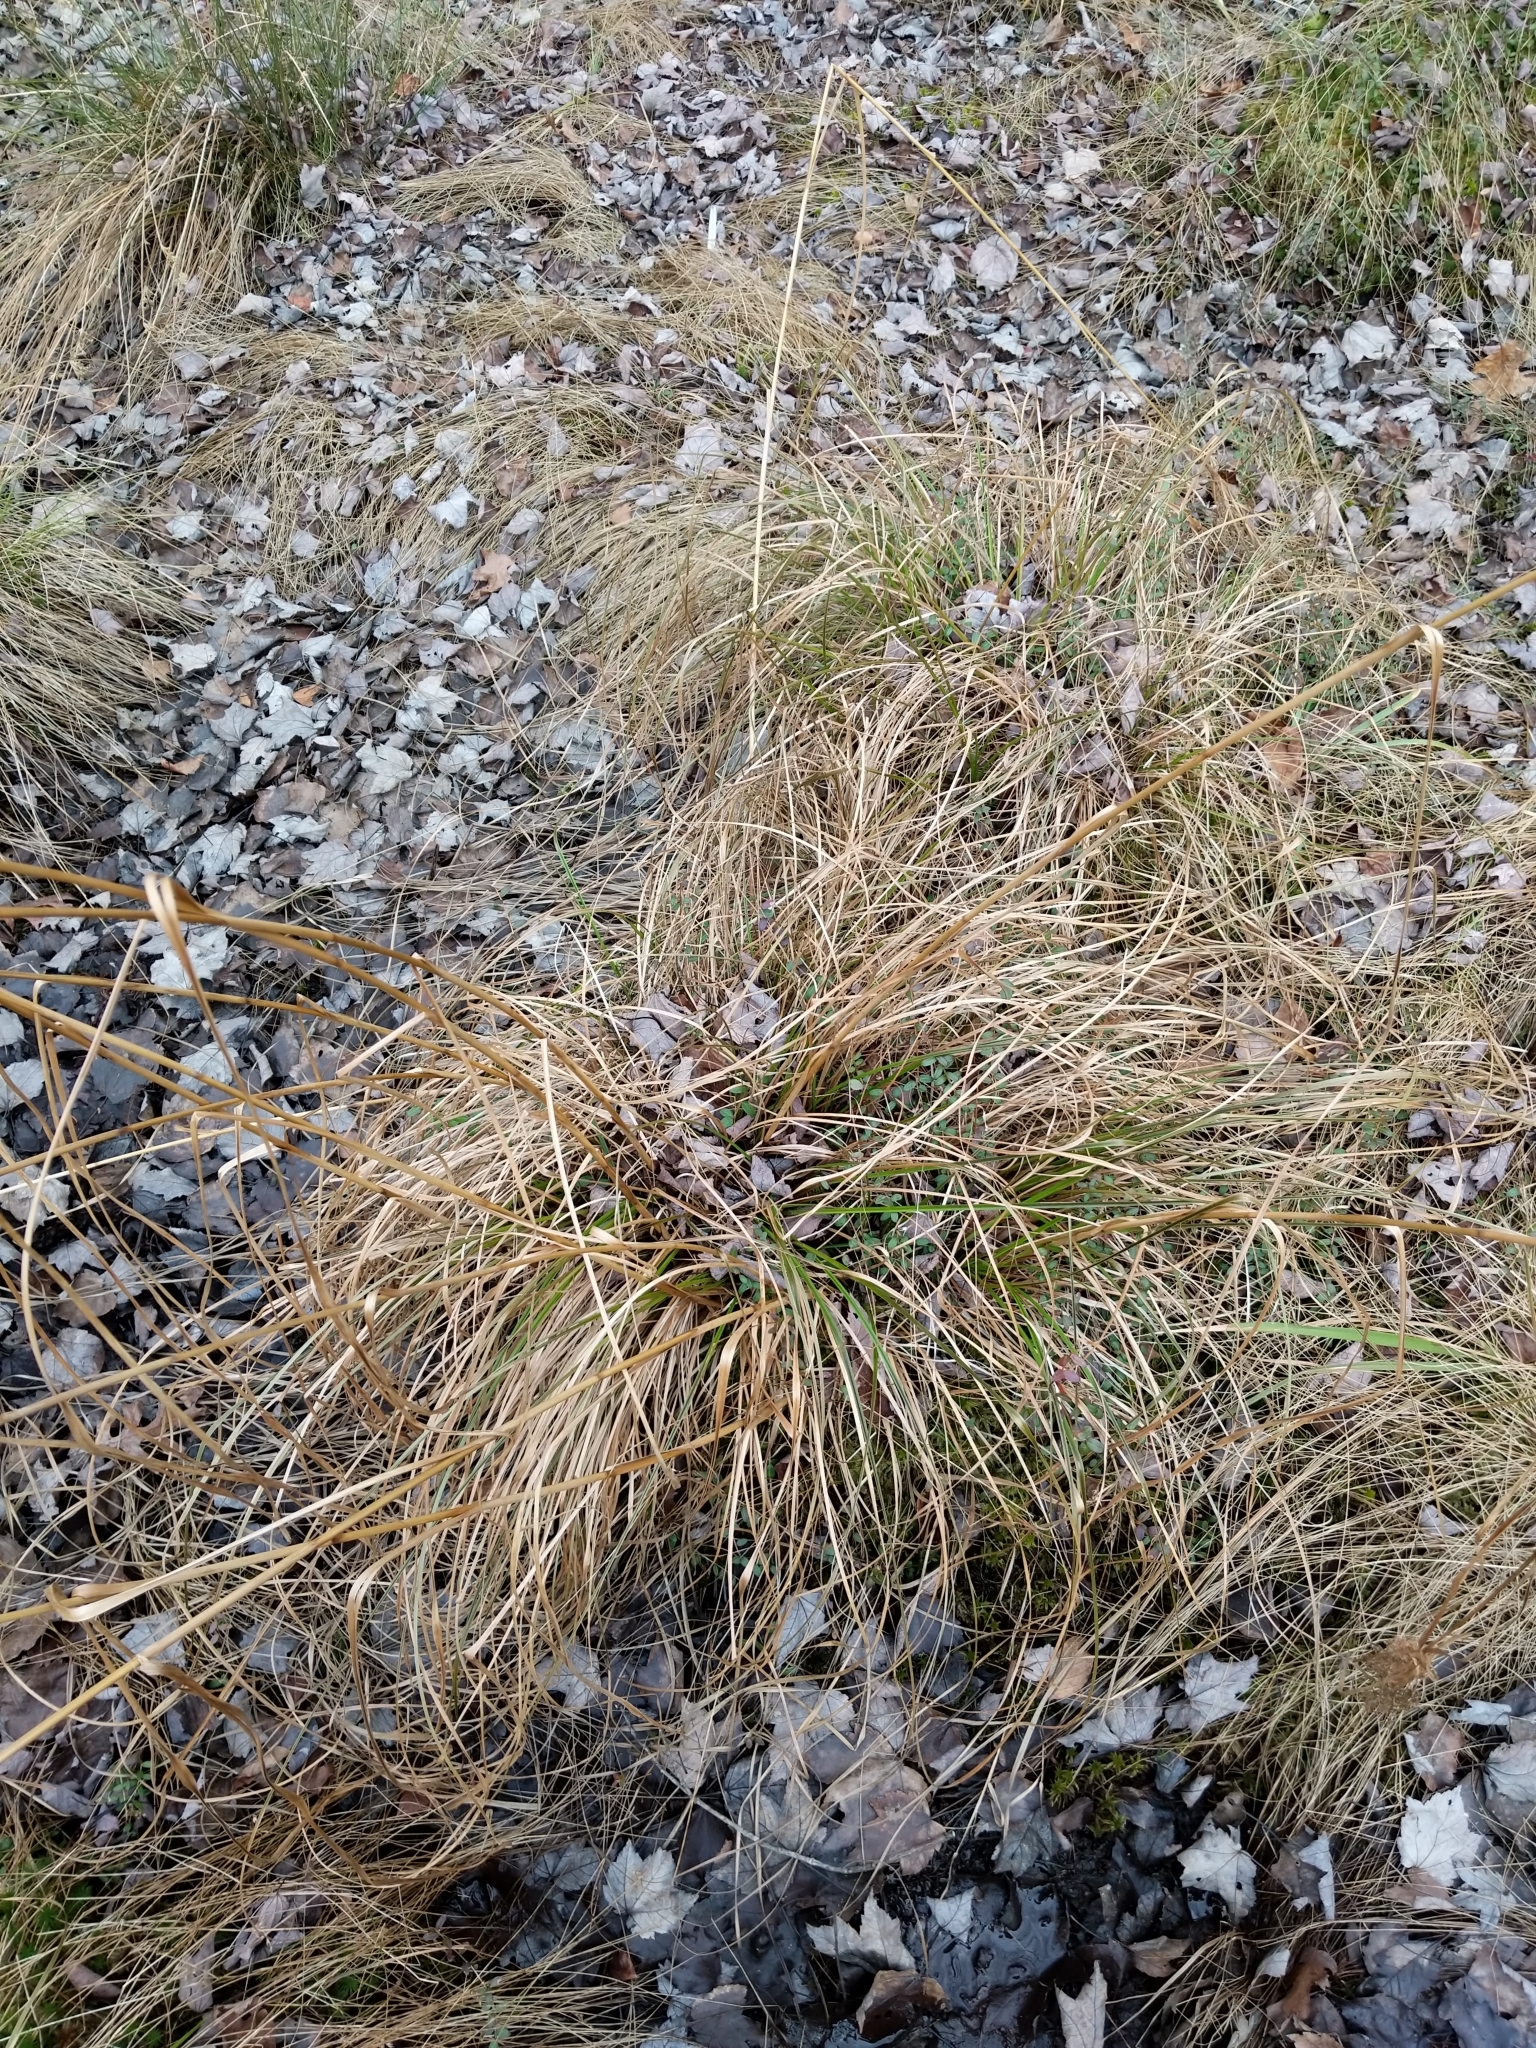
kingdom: Plantae
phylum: Tracheophyta
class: Liliopsida
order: Poales
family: Cyperaceae
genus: Scirpus
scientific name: Scirpus cyperinus
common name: Black-sheathed bulrush
